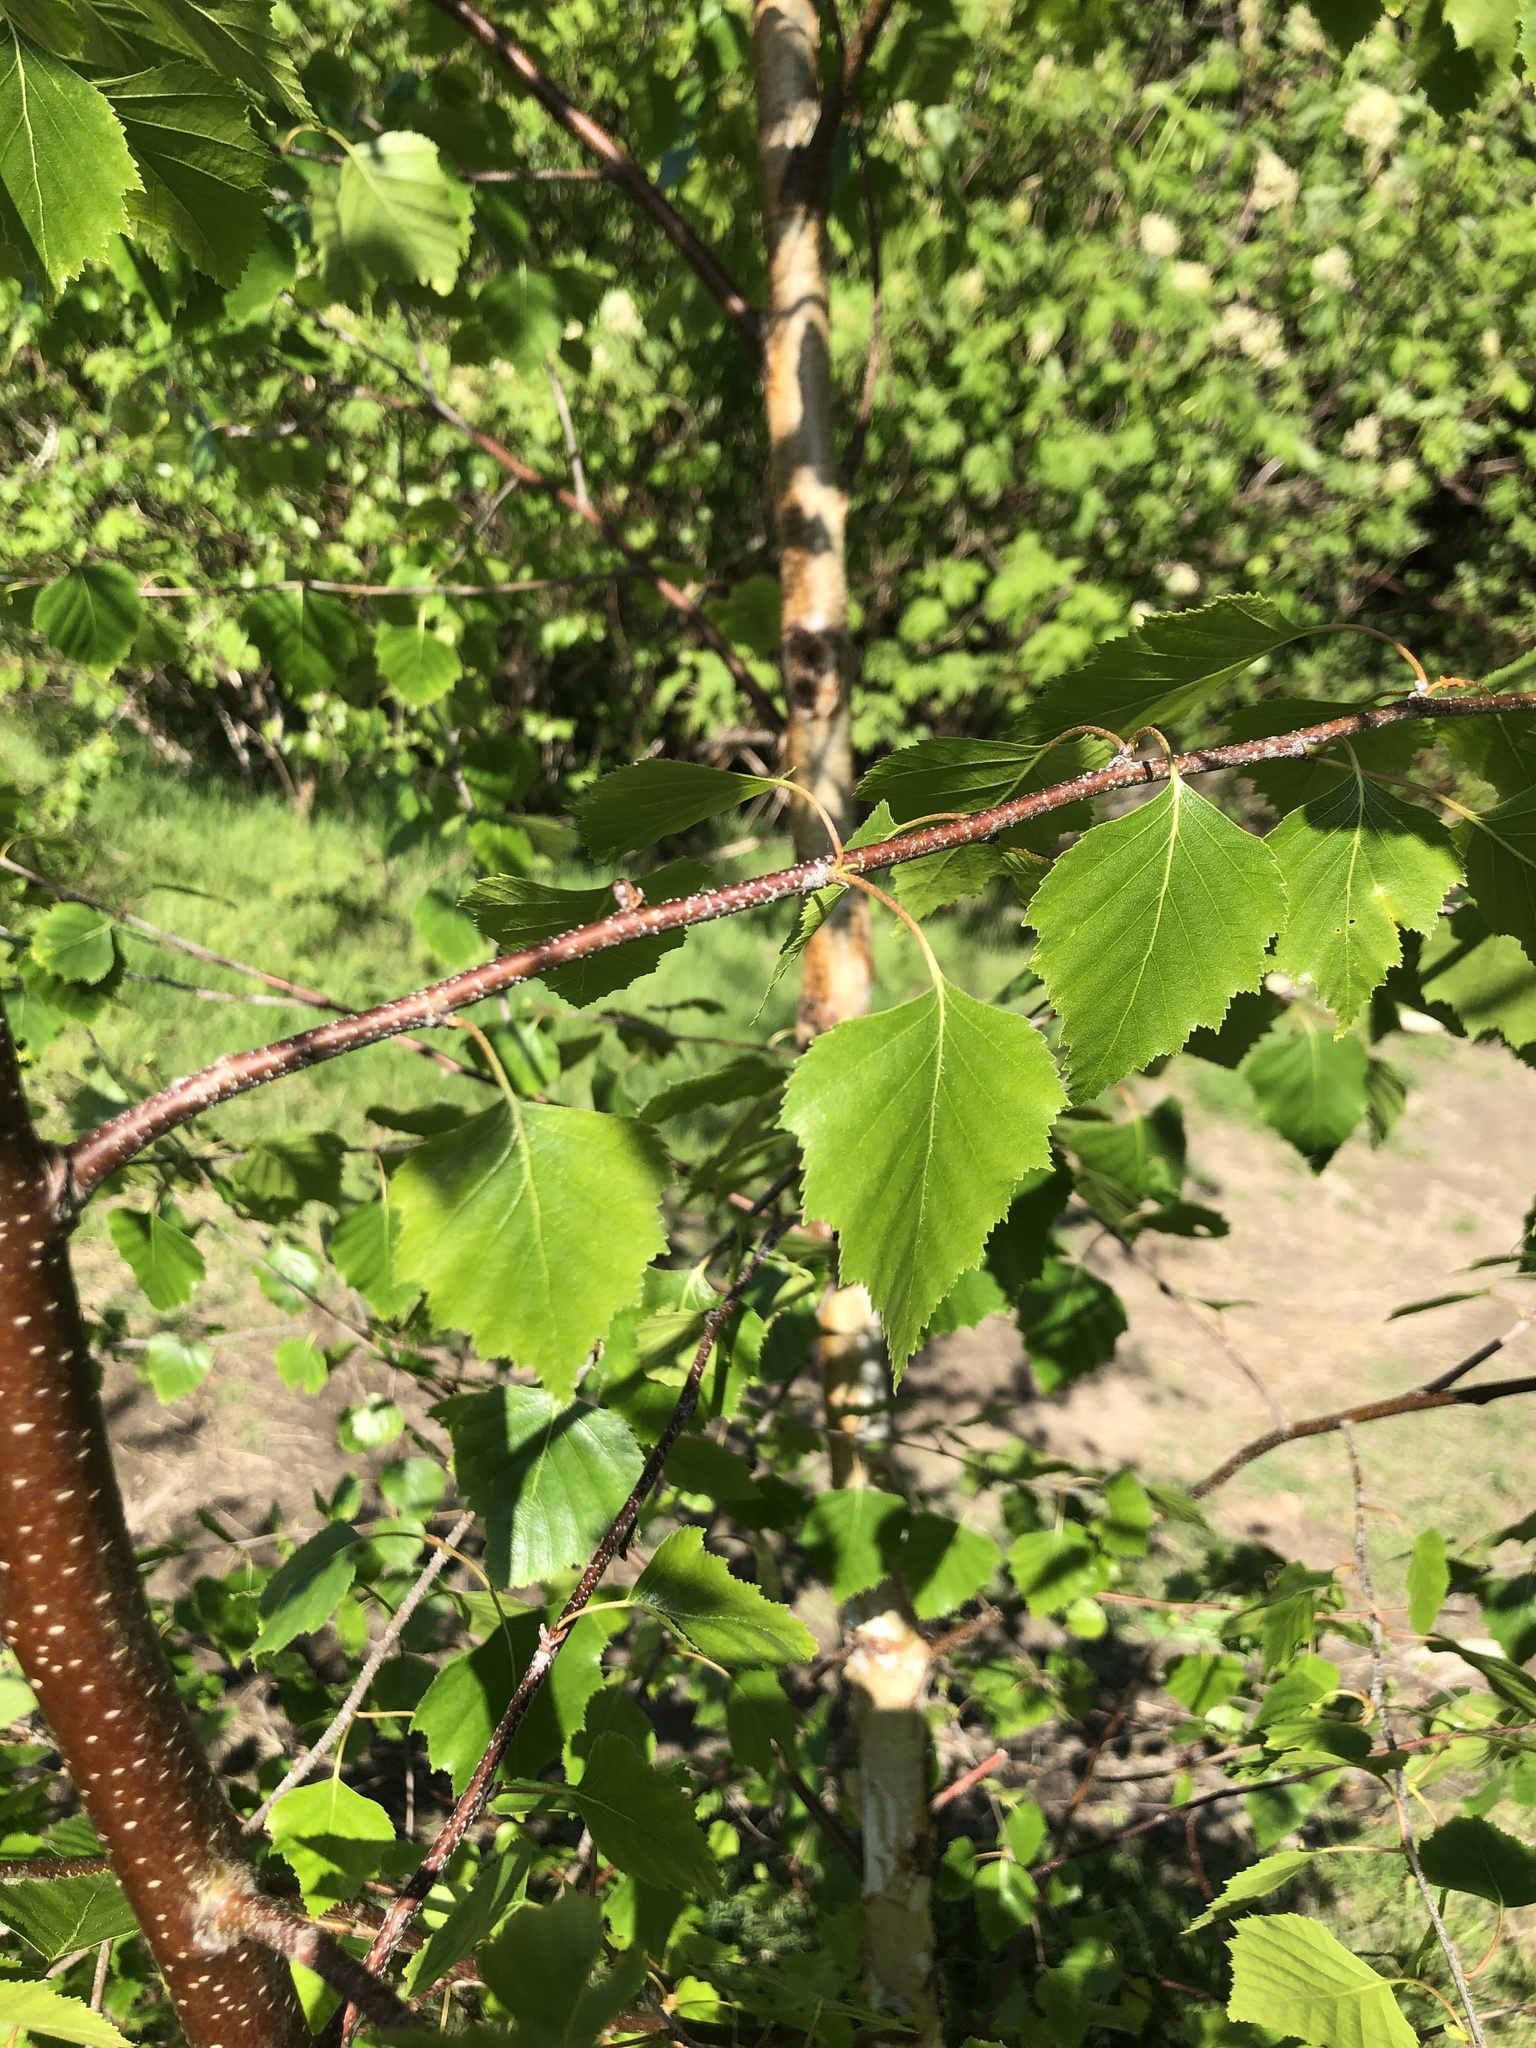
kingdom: Plantae
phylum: Tracheophyta
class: Magnoliopsida
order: Fagales
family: Betulaceae
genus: Betula
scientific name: Betula pendula
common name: Silver birch
